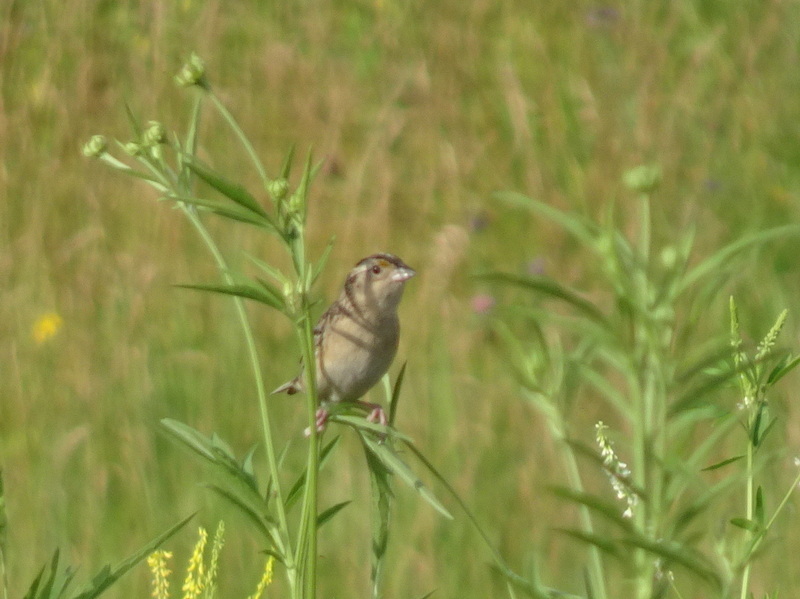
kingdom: Animalia
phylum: Chordata
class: Aves
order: Passeriformes
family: Passerellidae
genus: Ammodramus
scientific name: Ammodramus savannarum
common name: Grasshopper sparrow
